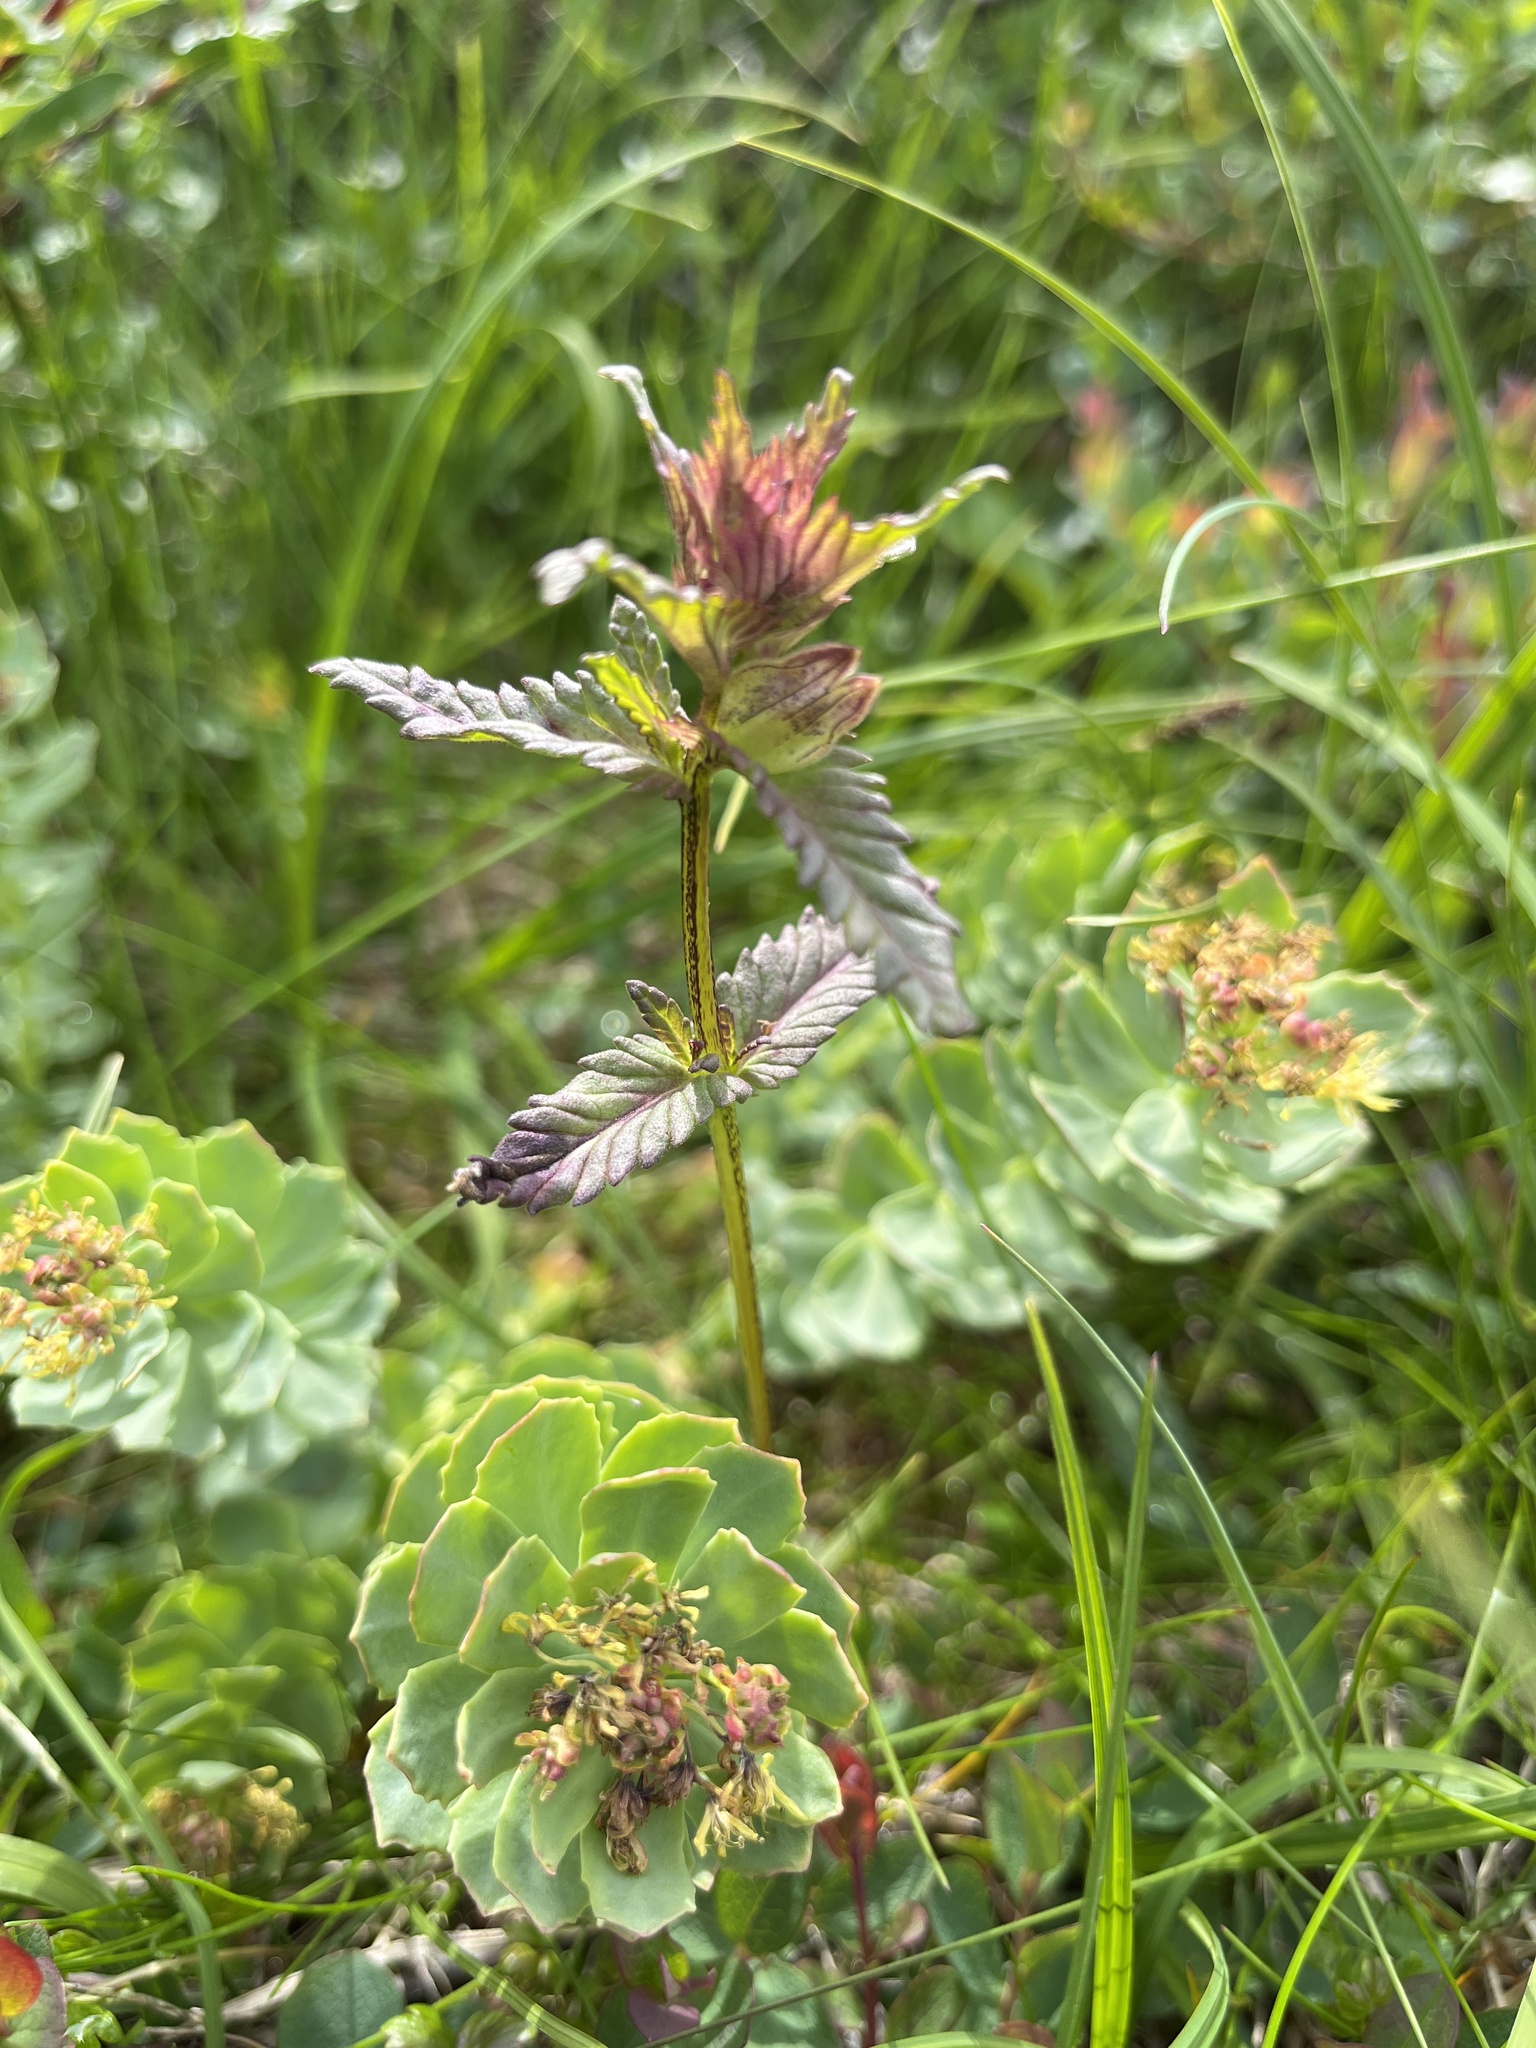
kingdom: Plantae
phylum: Tracheophyta
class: Magnoliopsida
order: Lamiales
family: Orobanchaceae
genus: Rhinanthus
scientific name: Rhinanthus minor
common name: Yellow-rattle
